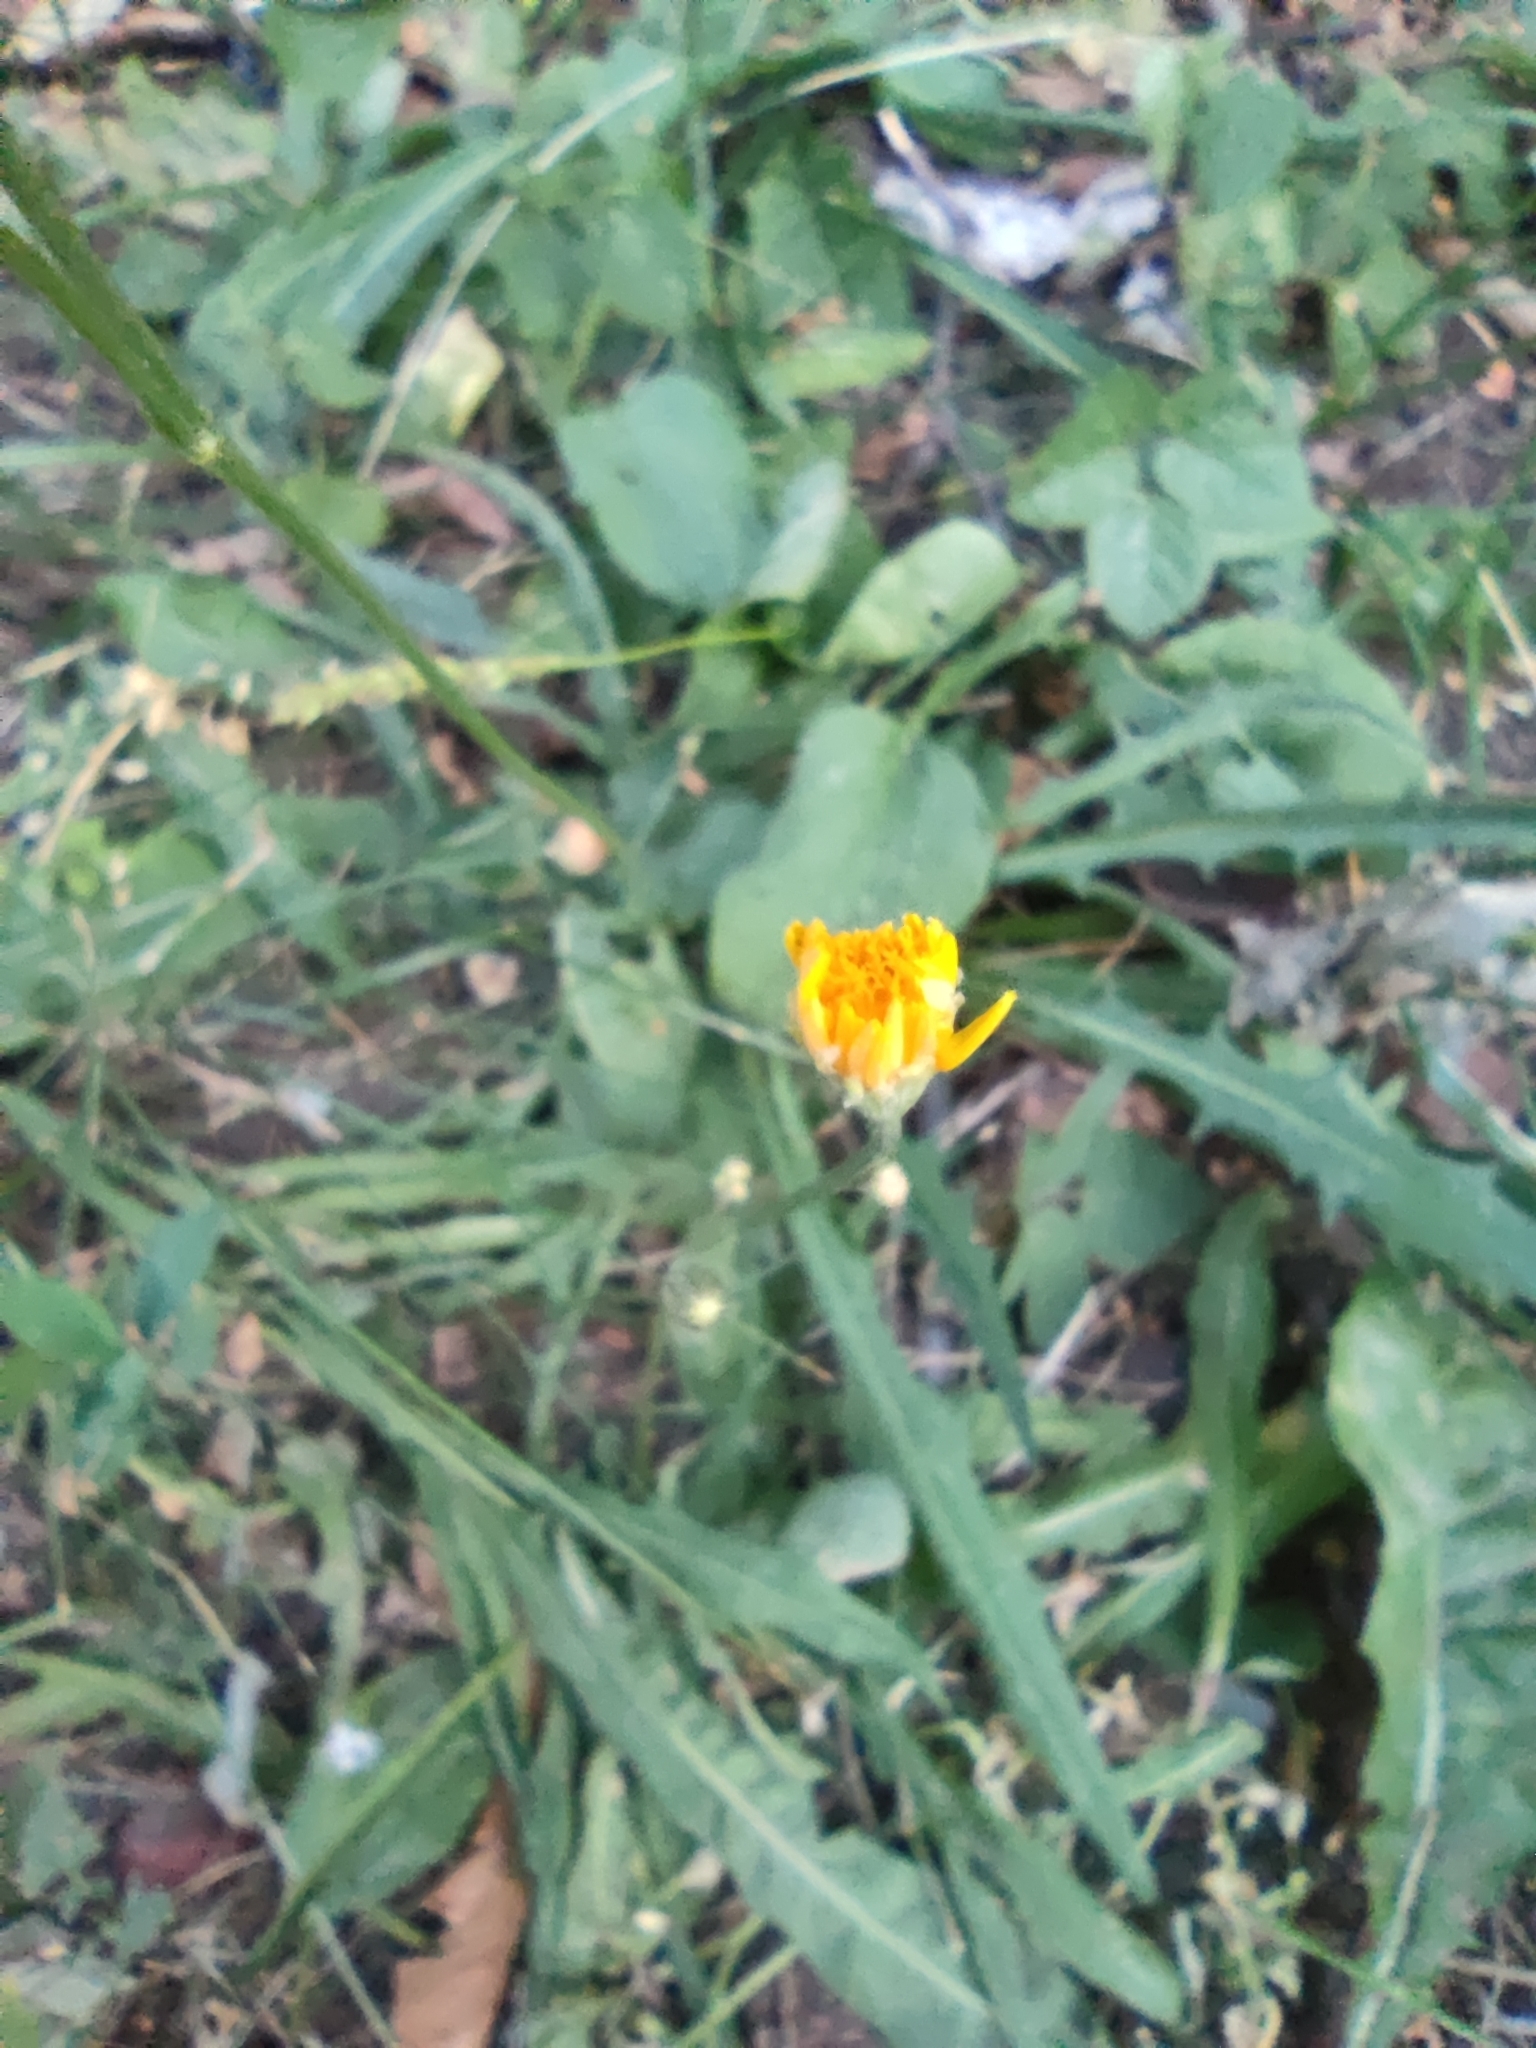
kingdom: Plantae
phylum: Tracheophyta
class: Magnoliopsida
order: Asterales
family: Asteraceae
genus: Scorzoneroides
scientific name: Scorzoneroides autumnalis
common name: Autumn hawkbit
